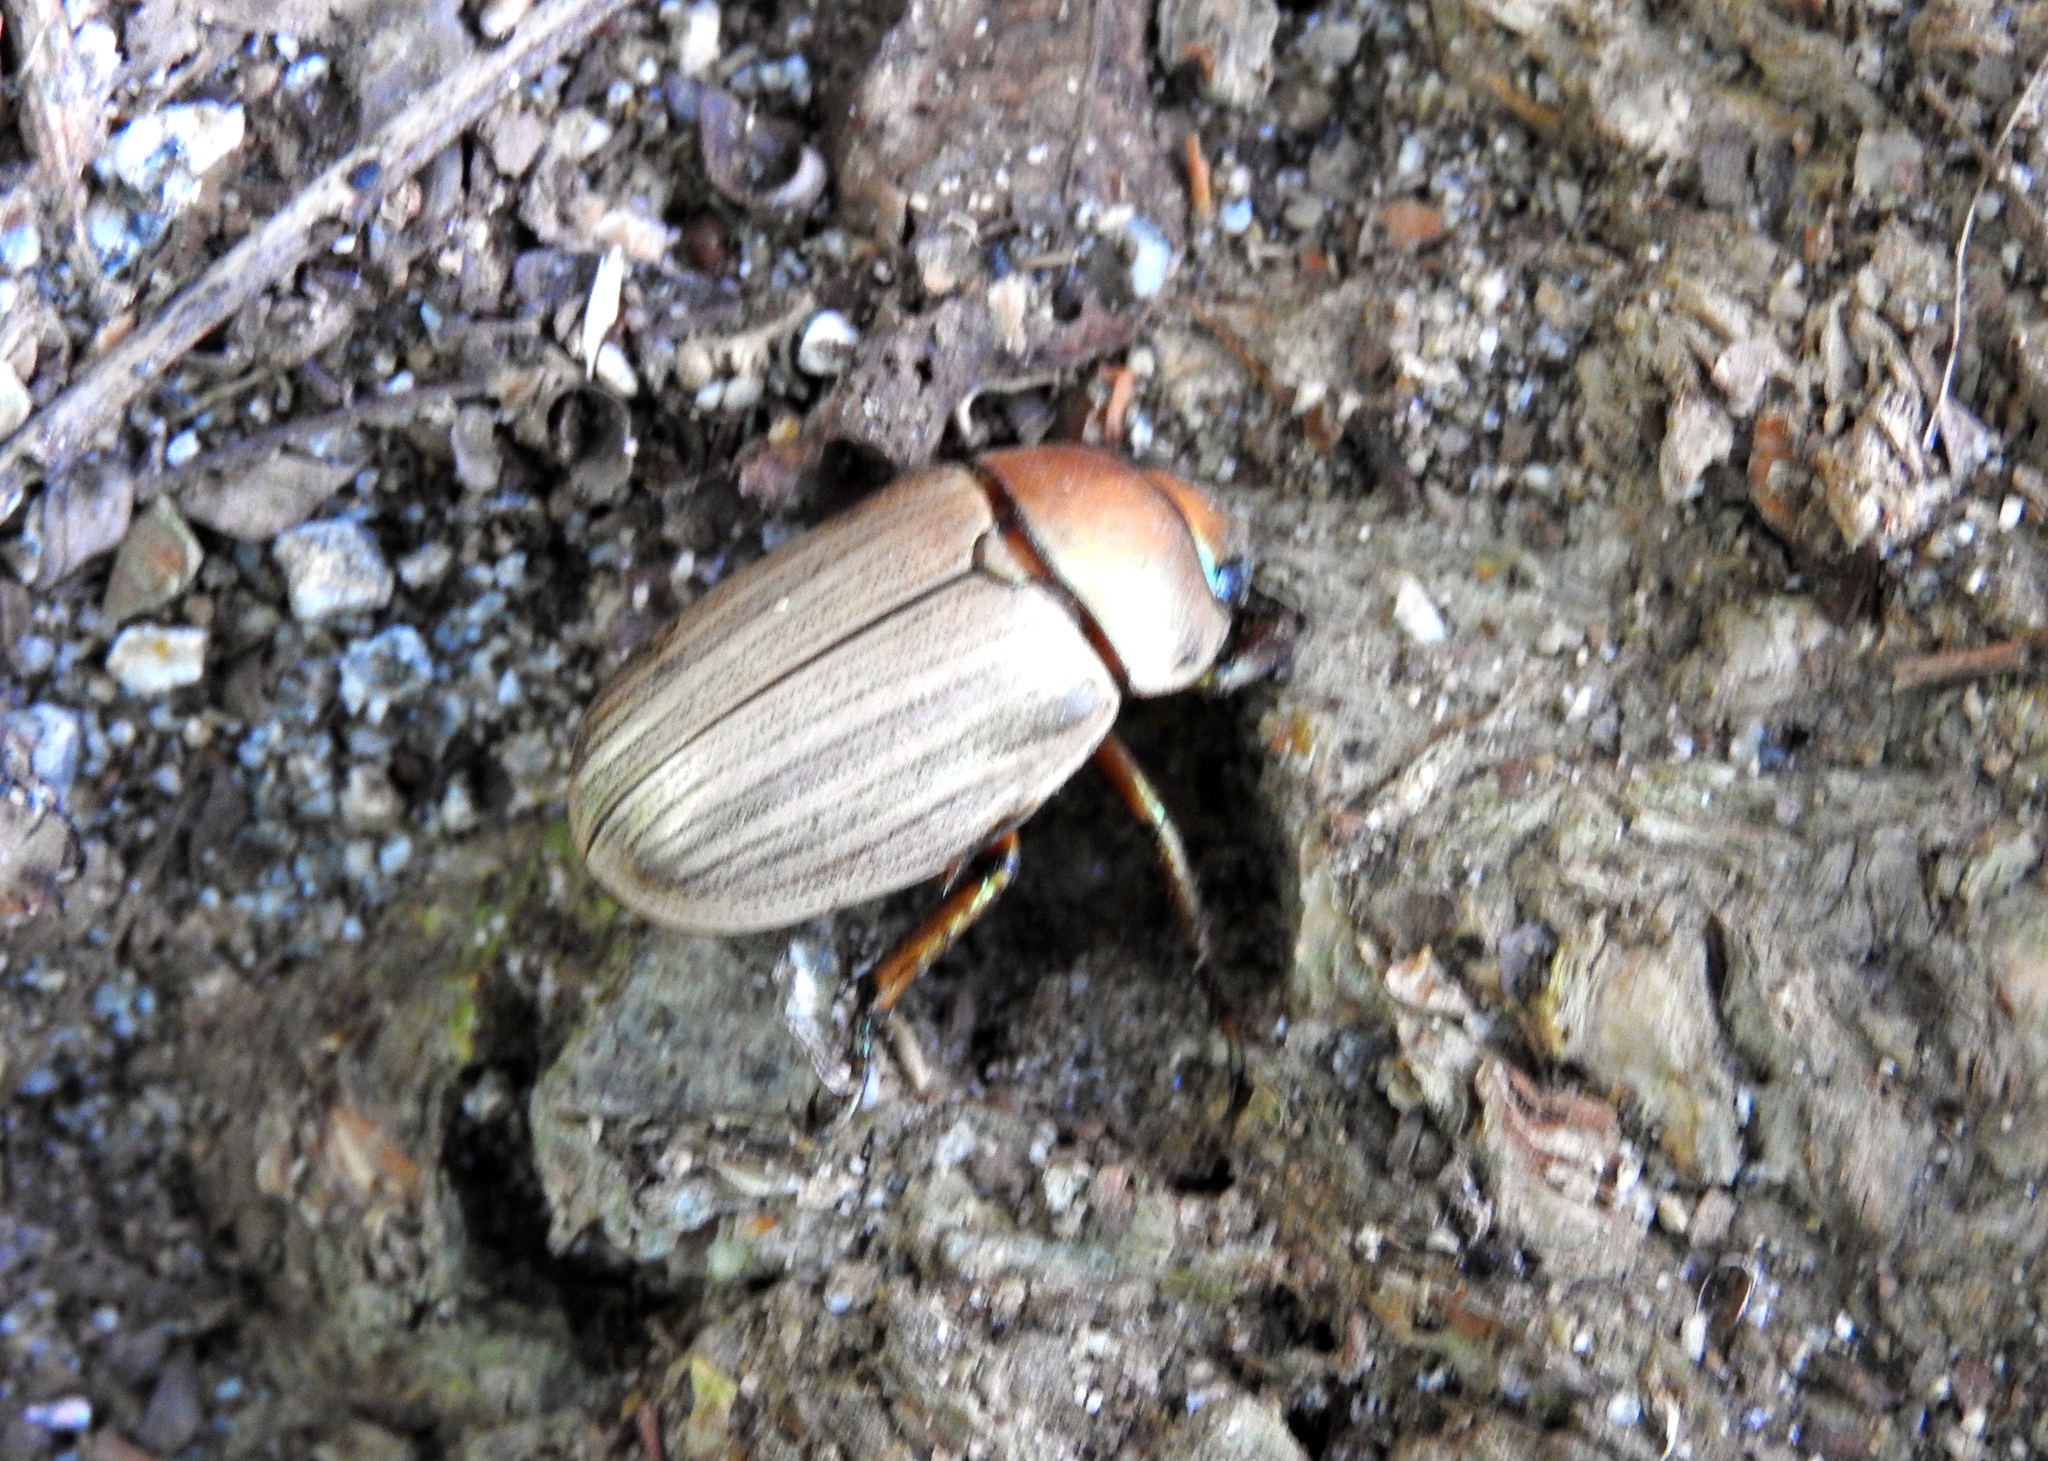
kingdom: Animalia
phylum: Arthropoda
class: Insecta
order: Coleoptera
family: Scarabaeidae
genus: Pelidnota
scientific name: Pelidnota virescens
